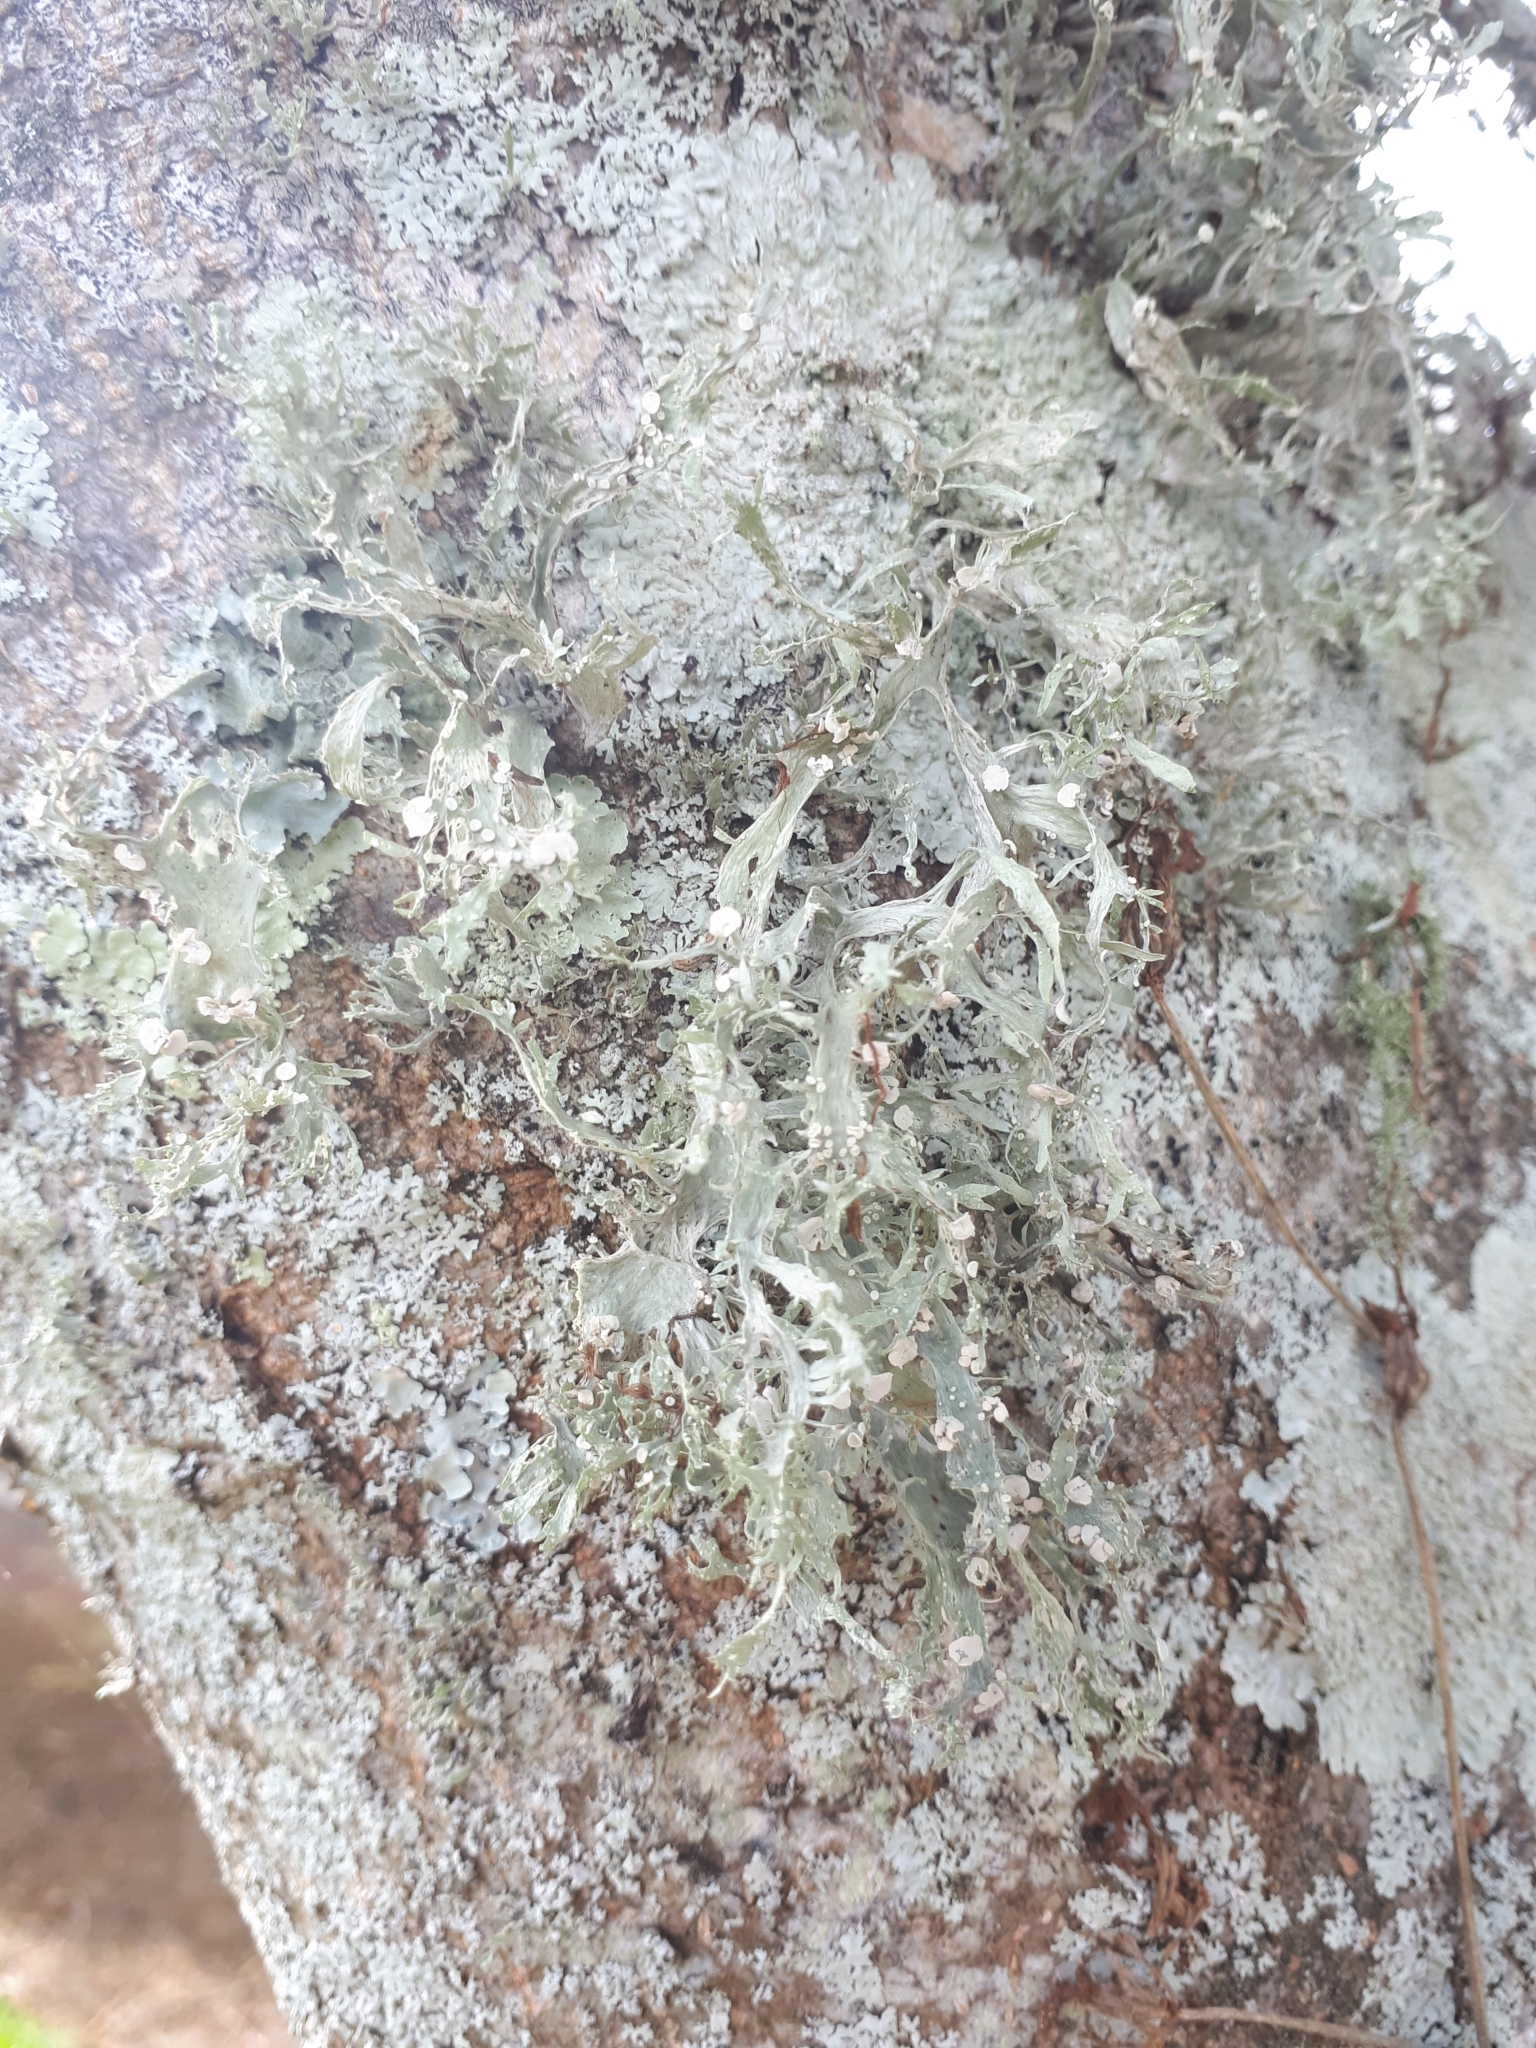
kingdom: Fungi
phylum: Ascomycota
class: Lecanoromycetes
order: Lecanorales
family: Ramalinaceae
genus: Ramalina
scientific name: Ramalina celastri
